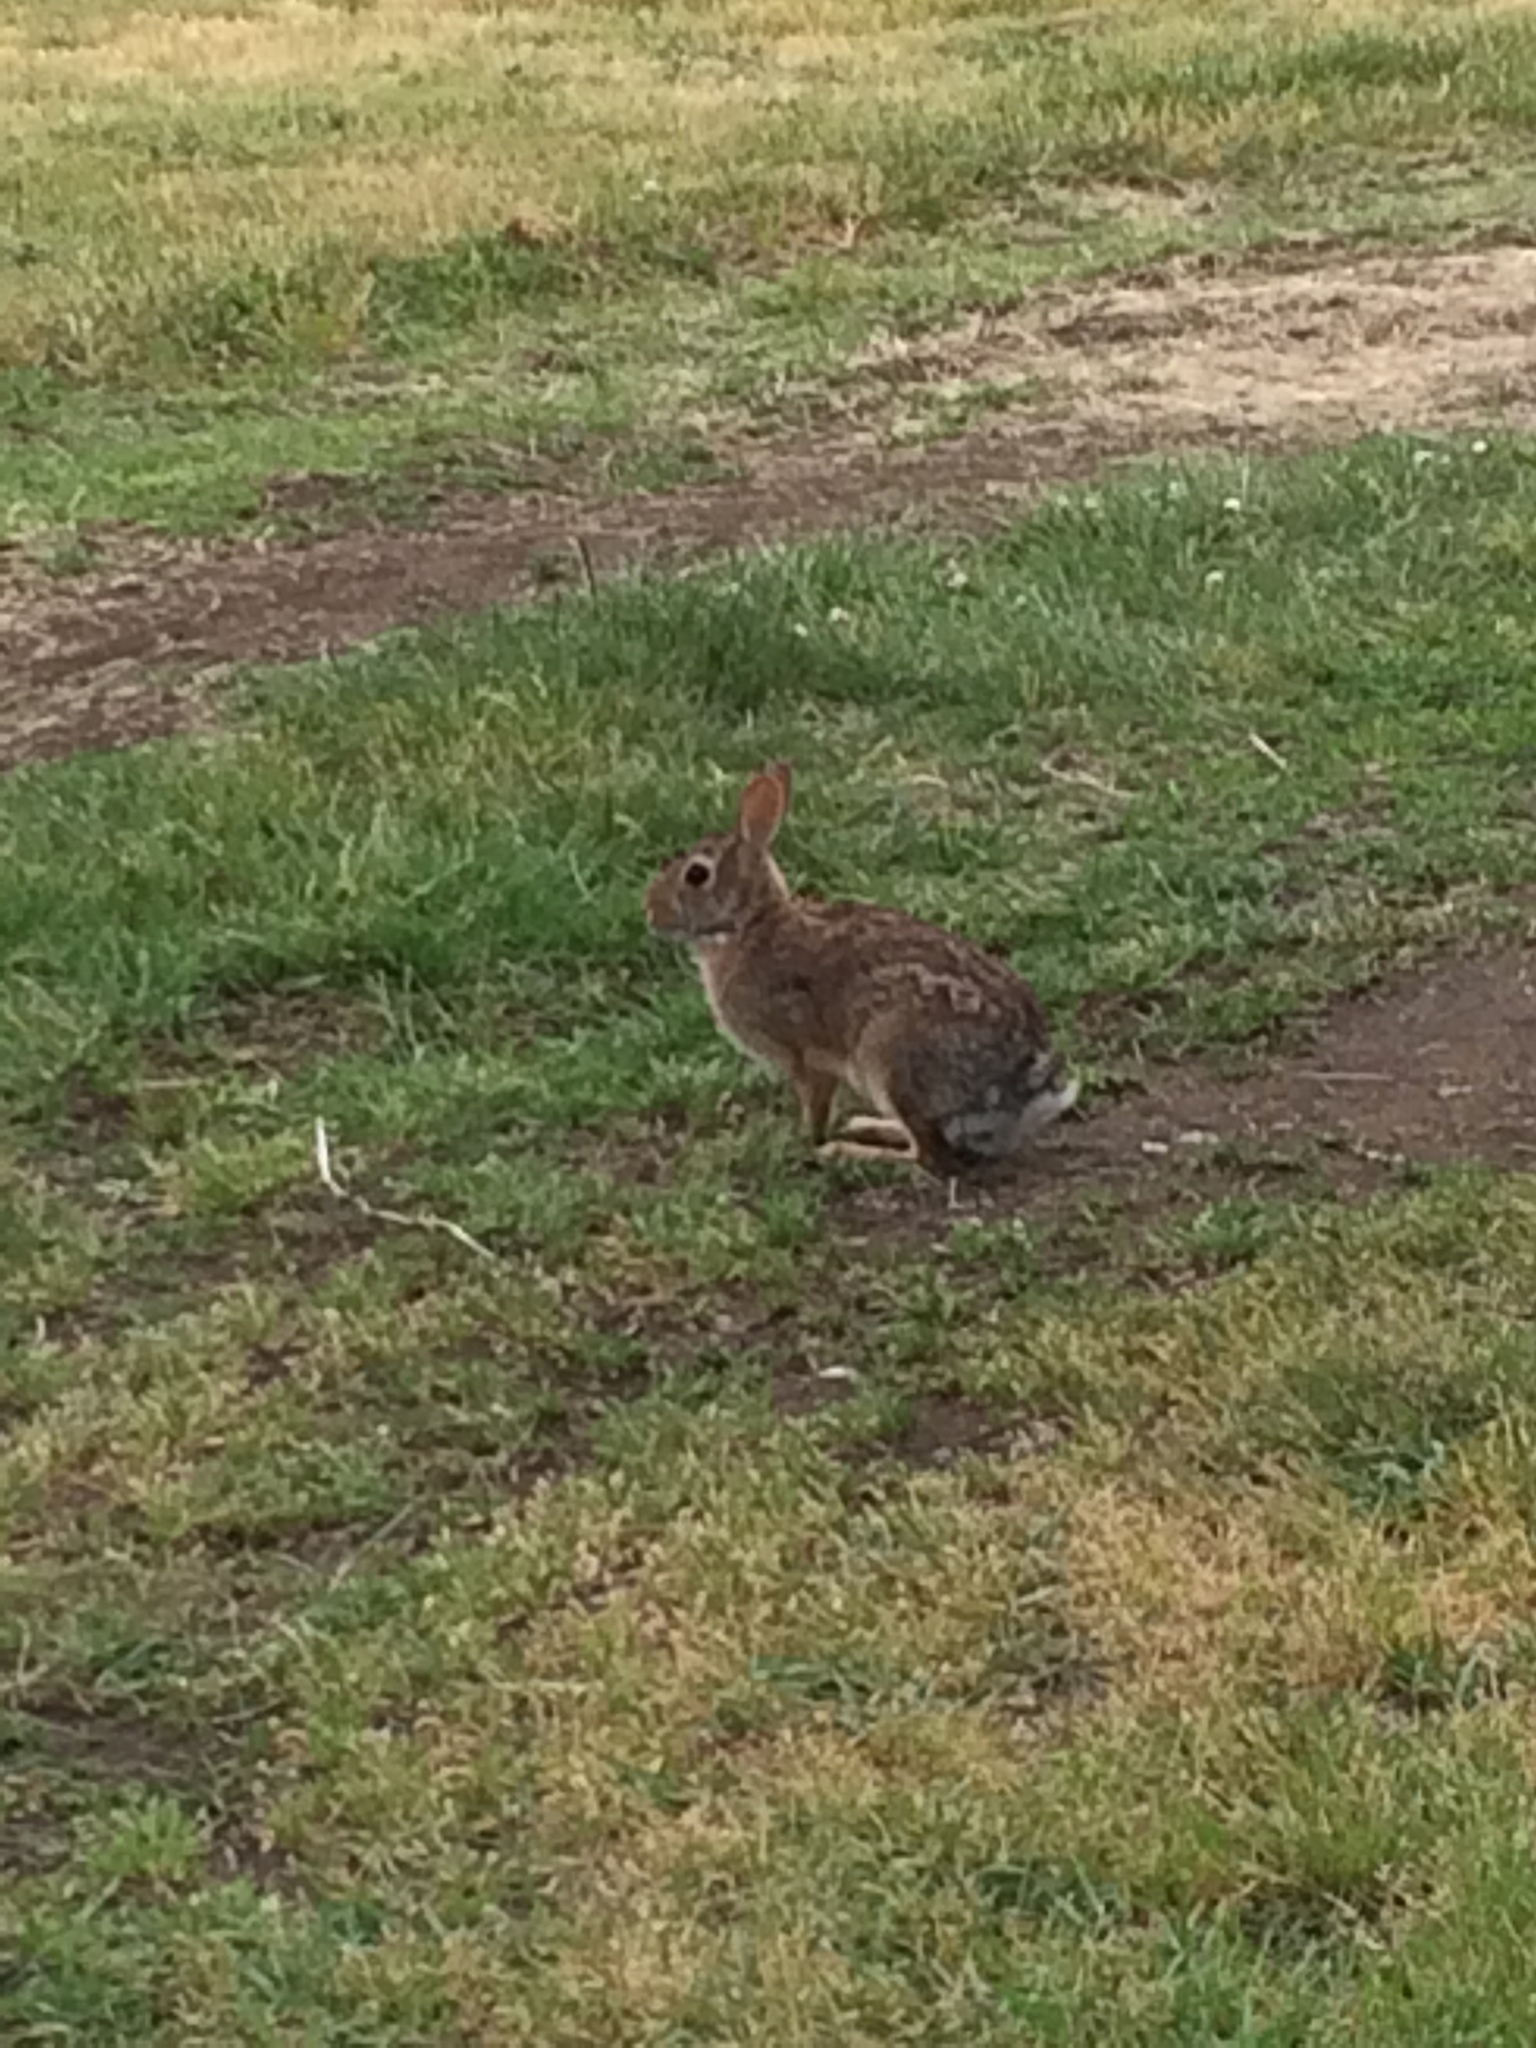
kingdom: Animalia
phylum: Chordata
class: Mammalia
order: Lagomorpha
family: Leporidae
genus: Sylvilagus
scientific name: Sylvilagus floridanus
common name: Eastern cottontail
